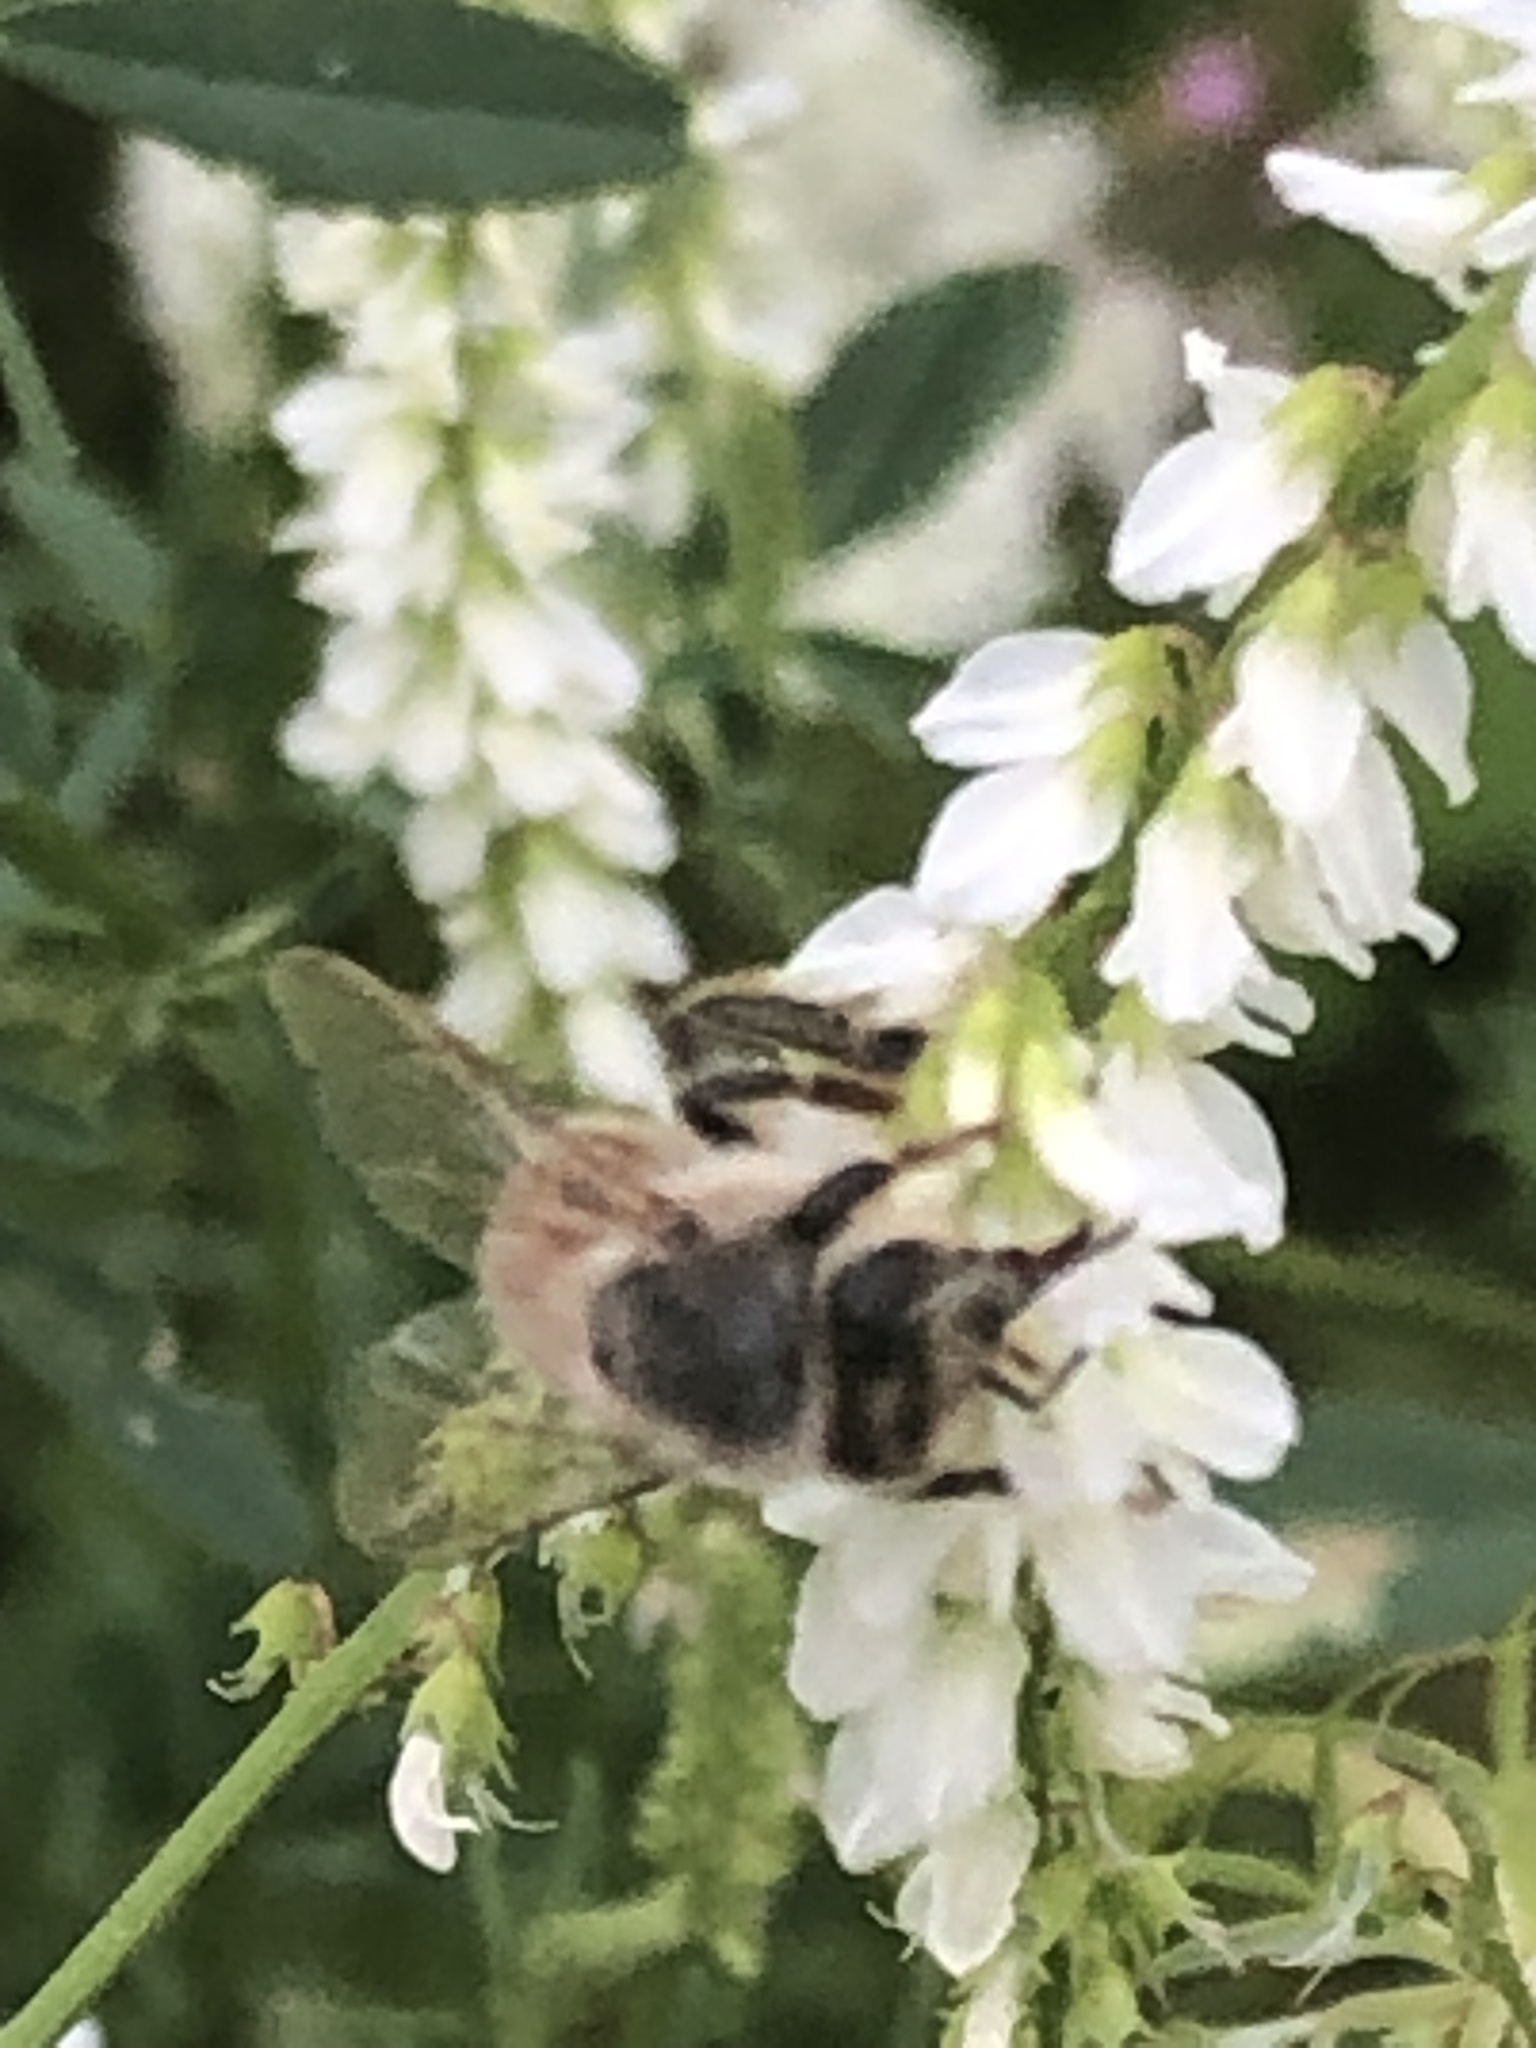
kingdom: Animalia
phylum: Arthropoda
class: Insecta
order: Hymenoptera
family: Apidae
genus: Apis
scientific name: Apis mellifera
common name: Honey bee
